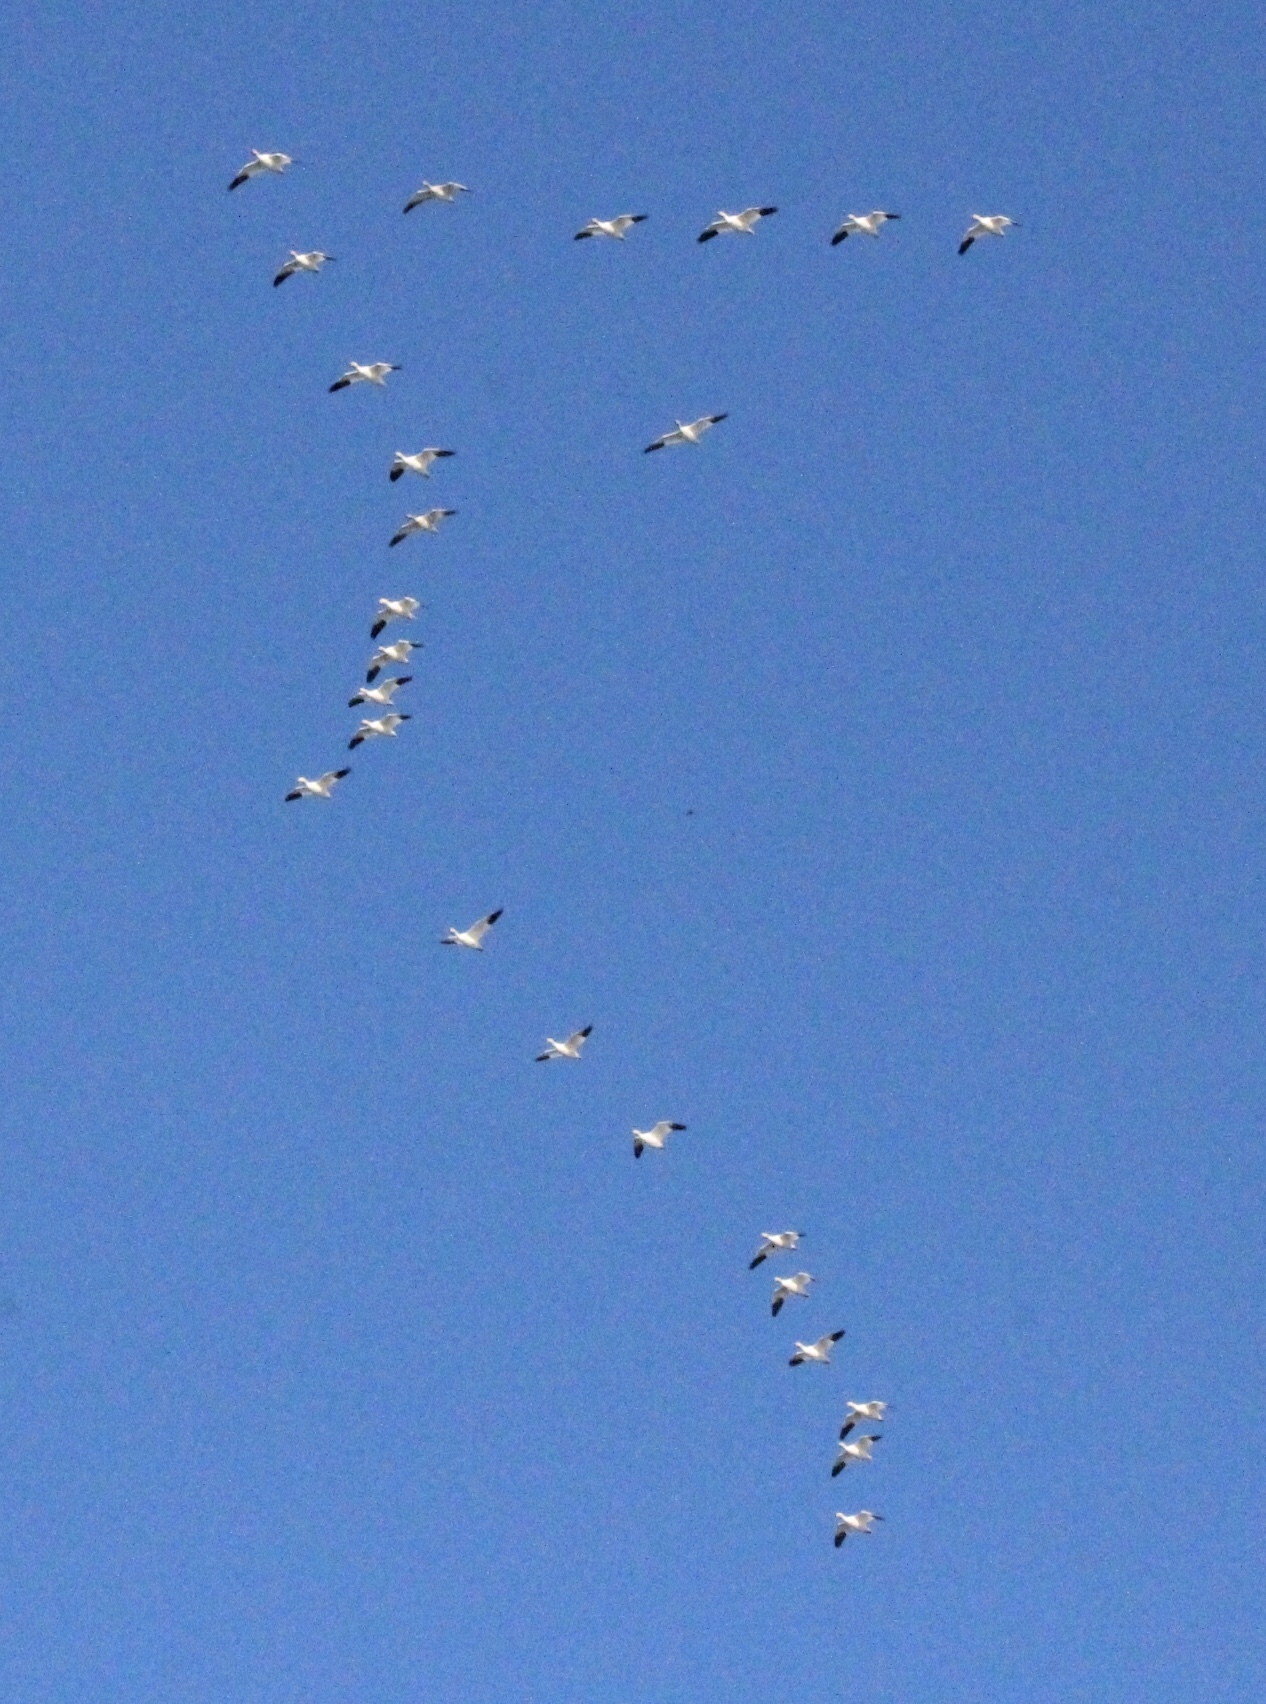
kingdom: Animalia
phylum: Chordata
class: Aves
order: Anseriformes
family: Anatidae
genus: Anser
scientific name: Anser caerulescens
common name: Snow goose
